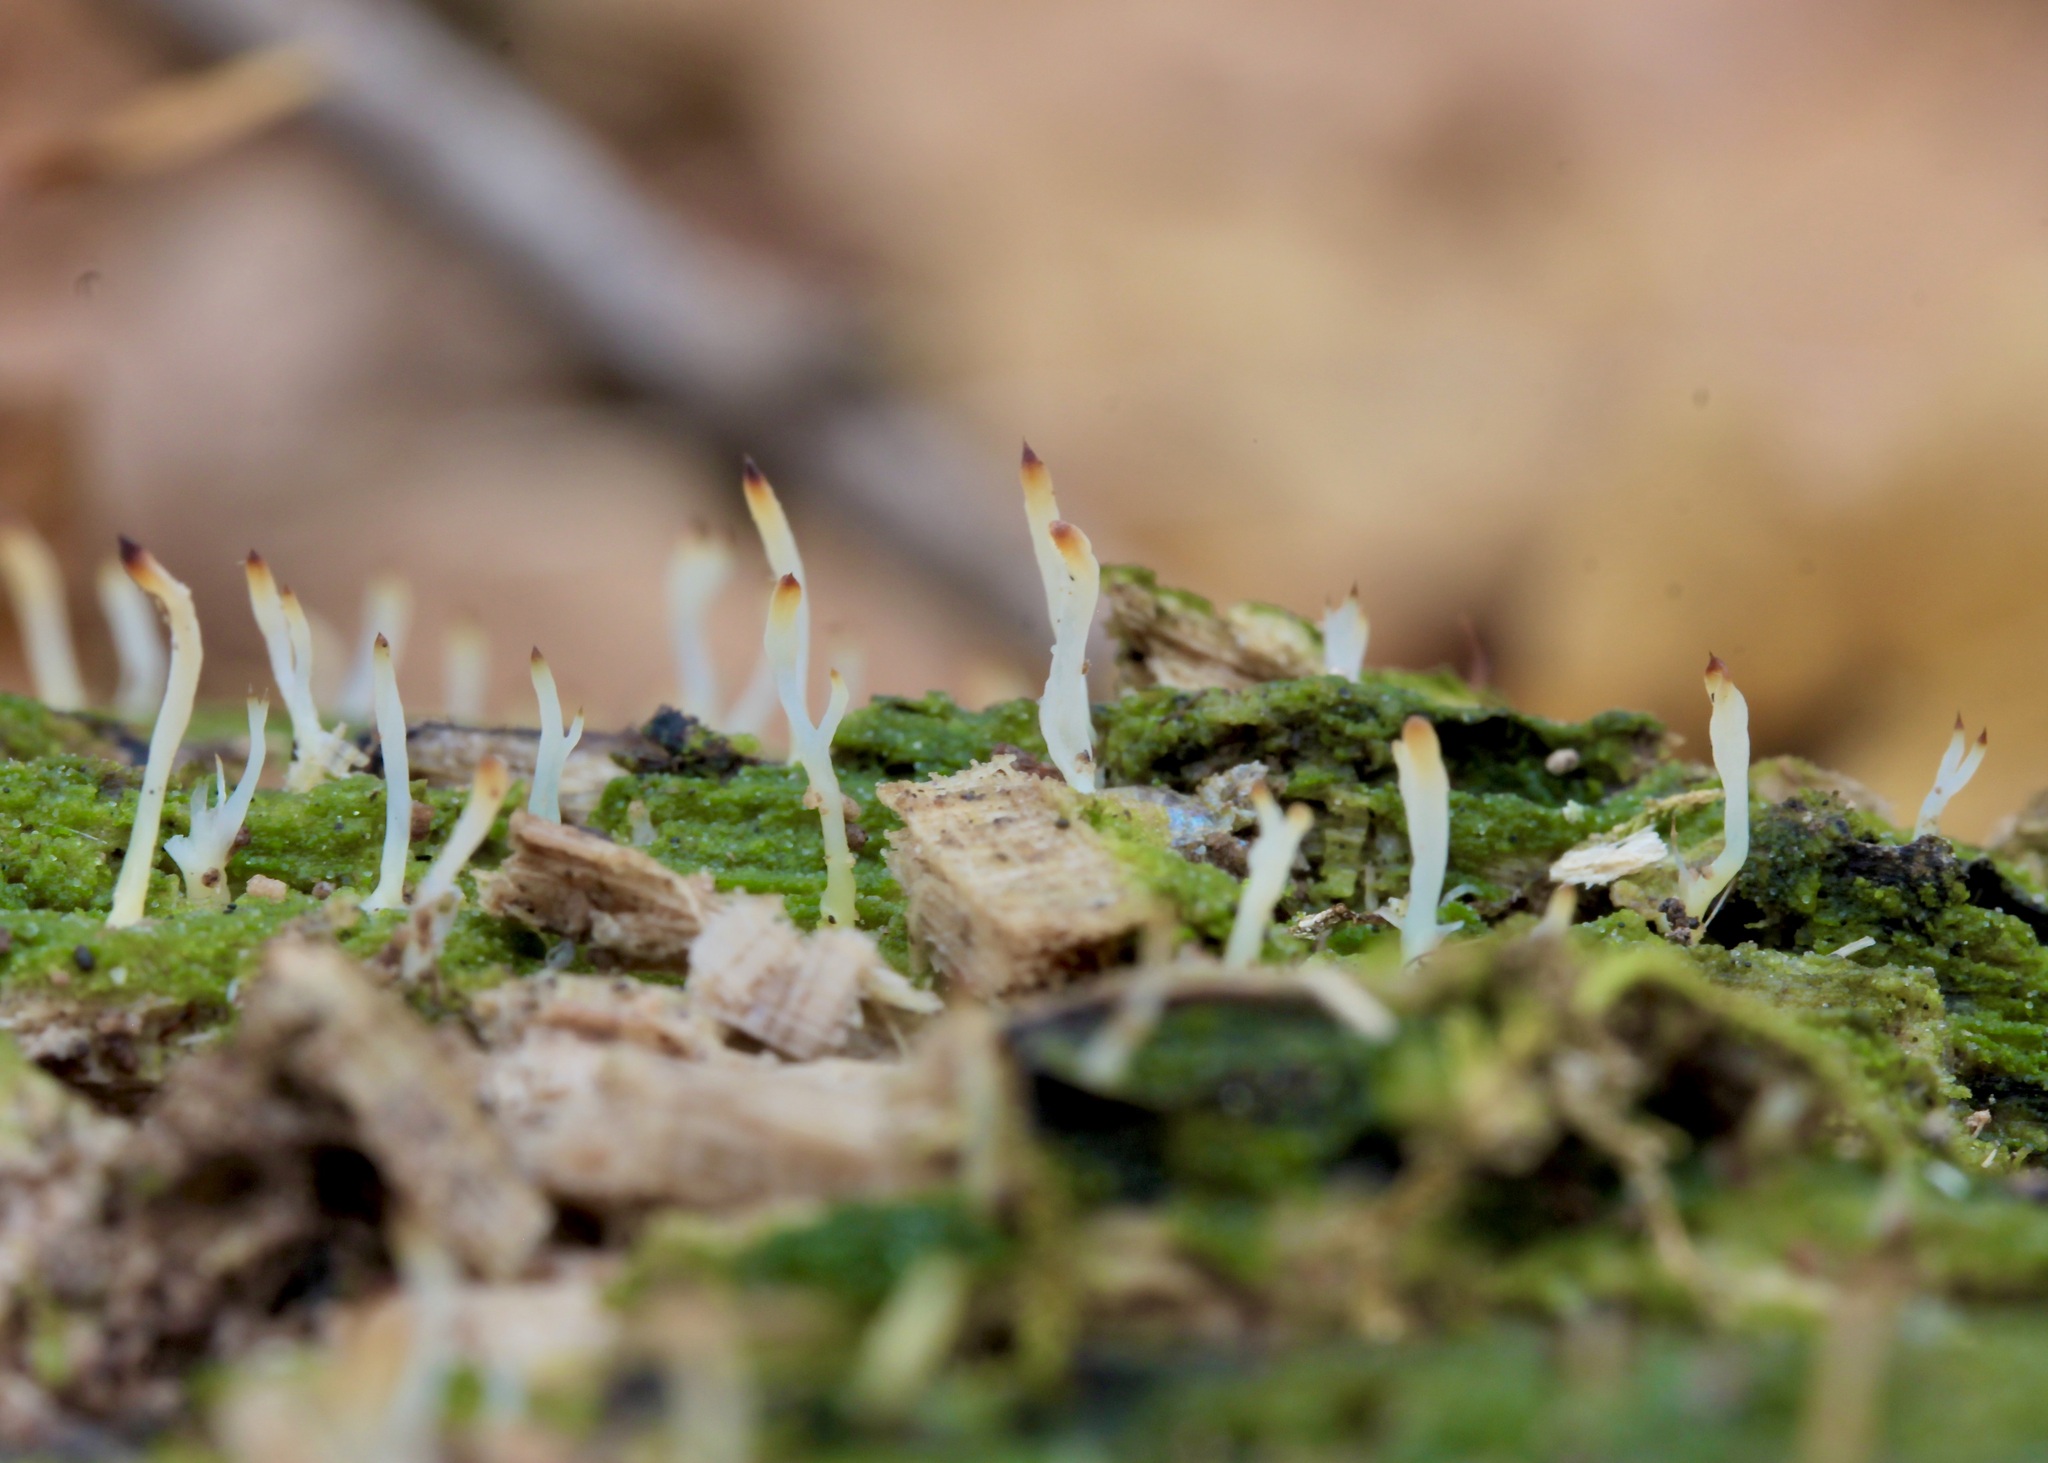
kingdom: Fungi
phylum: Basidiomycota
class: Agaricomycetes
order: Cantharellales
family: Hydnaceae
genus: Multiclavula
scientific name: Multiclavula mucida
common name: White green-algae coral
